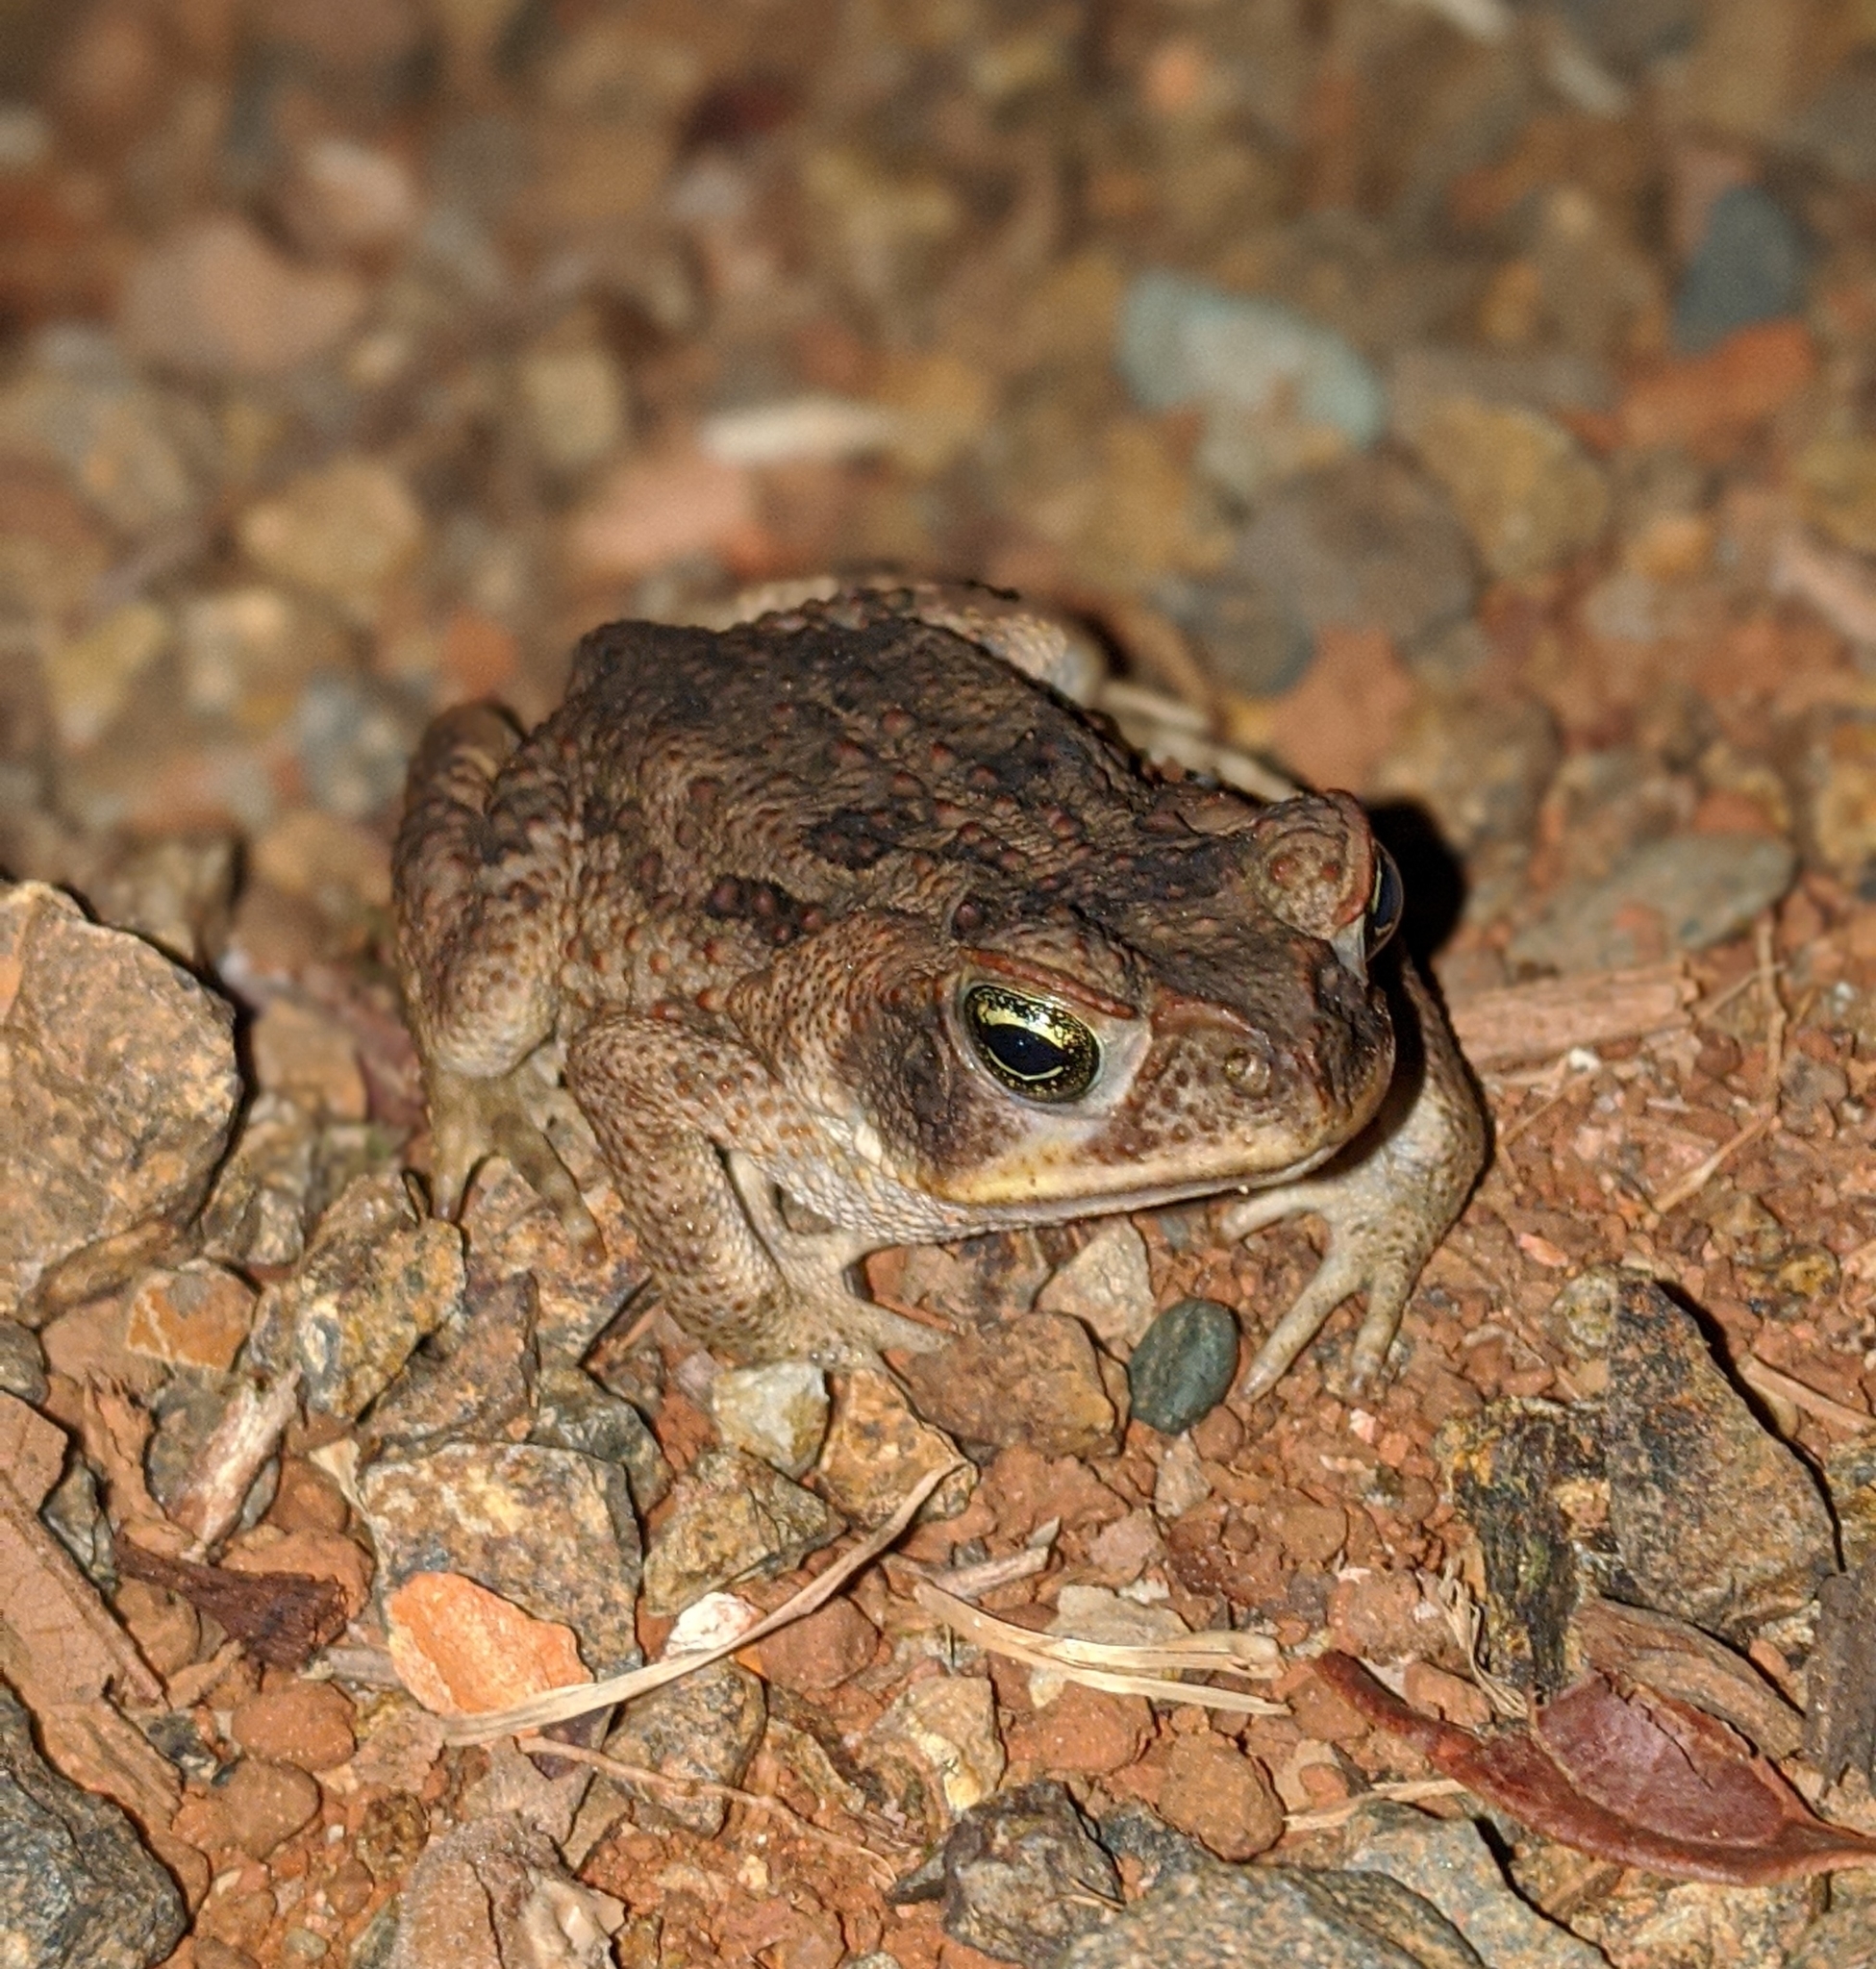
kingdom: Animalia
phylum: Chordata
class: Amphibia
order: Anura
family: Bufonidae
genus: Rhinella
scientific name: Rhinella horribilis
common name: Mesoamerican cane toad
